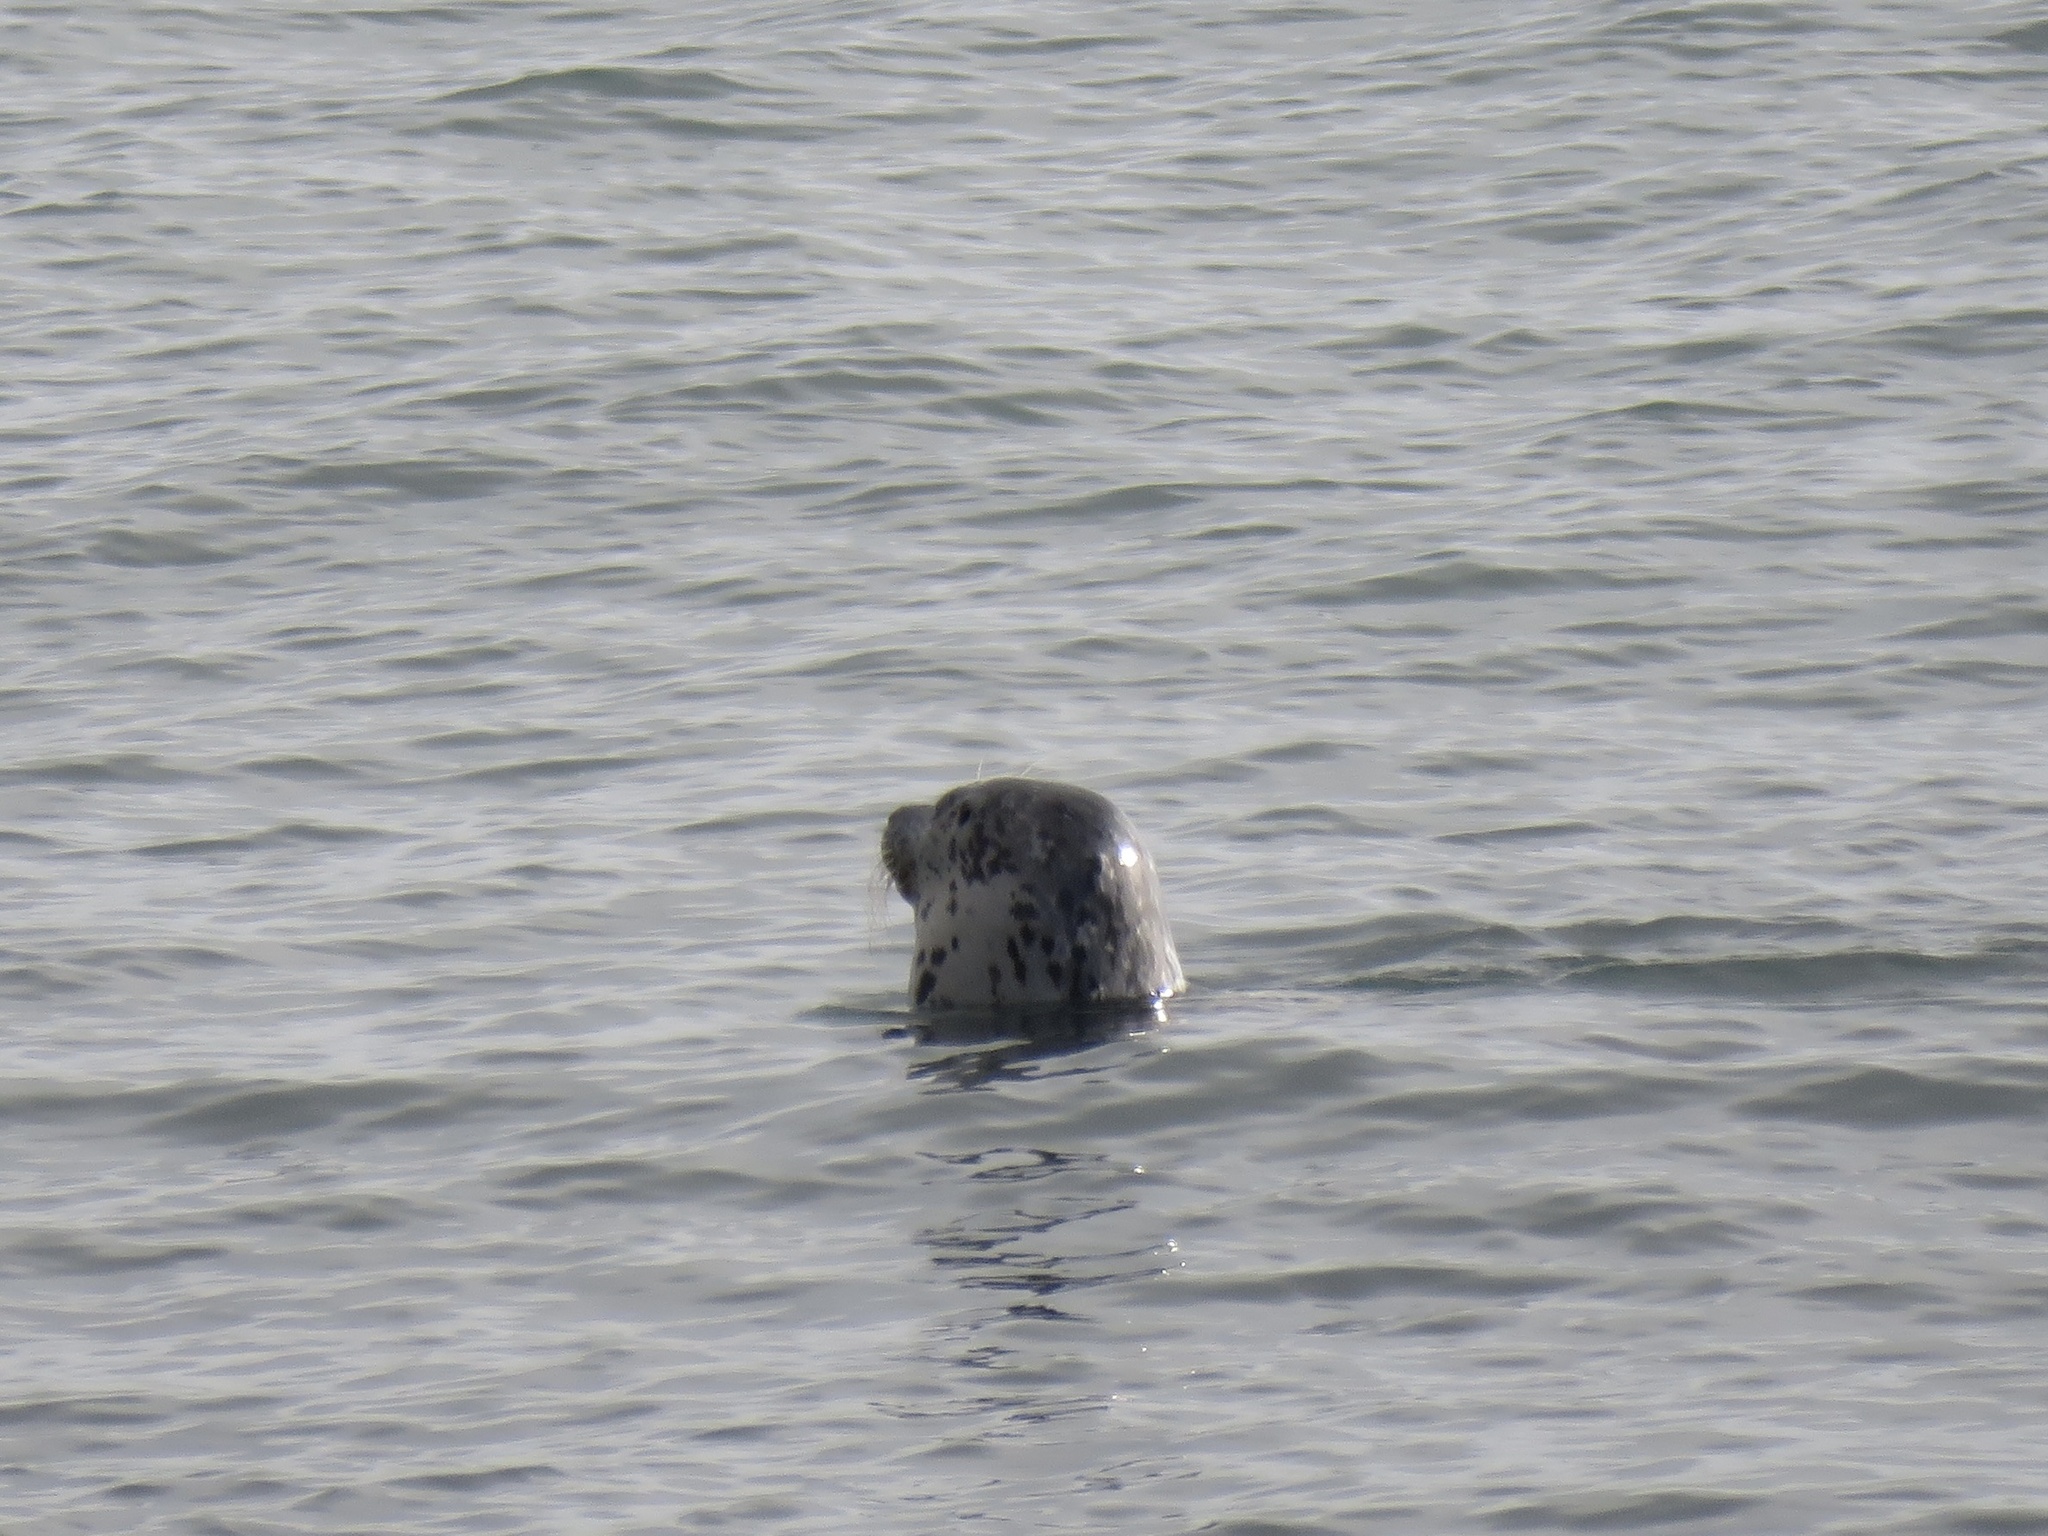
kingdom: Animalia
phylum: Chordata
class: Mammalia
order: Carnivora
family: Phocidae
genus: Phoca
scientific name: Phoca vitulina
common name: Harbor seal
